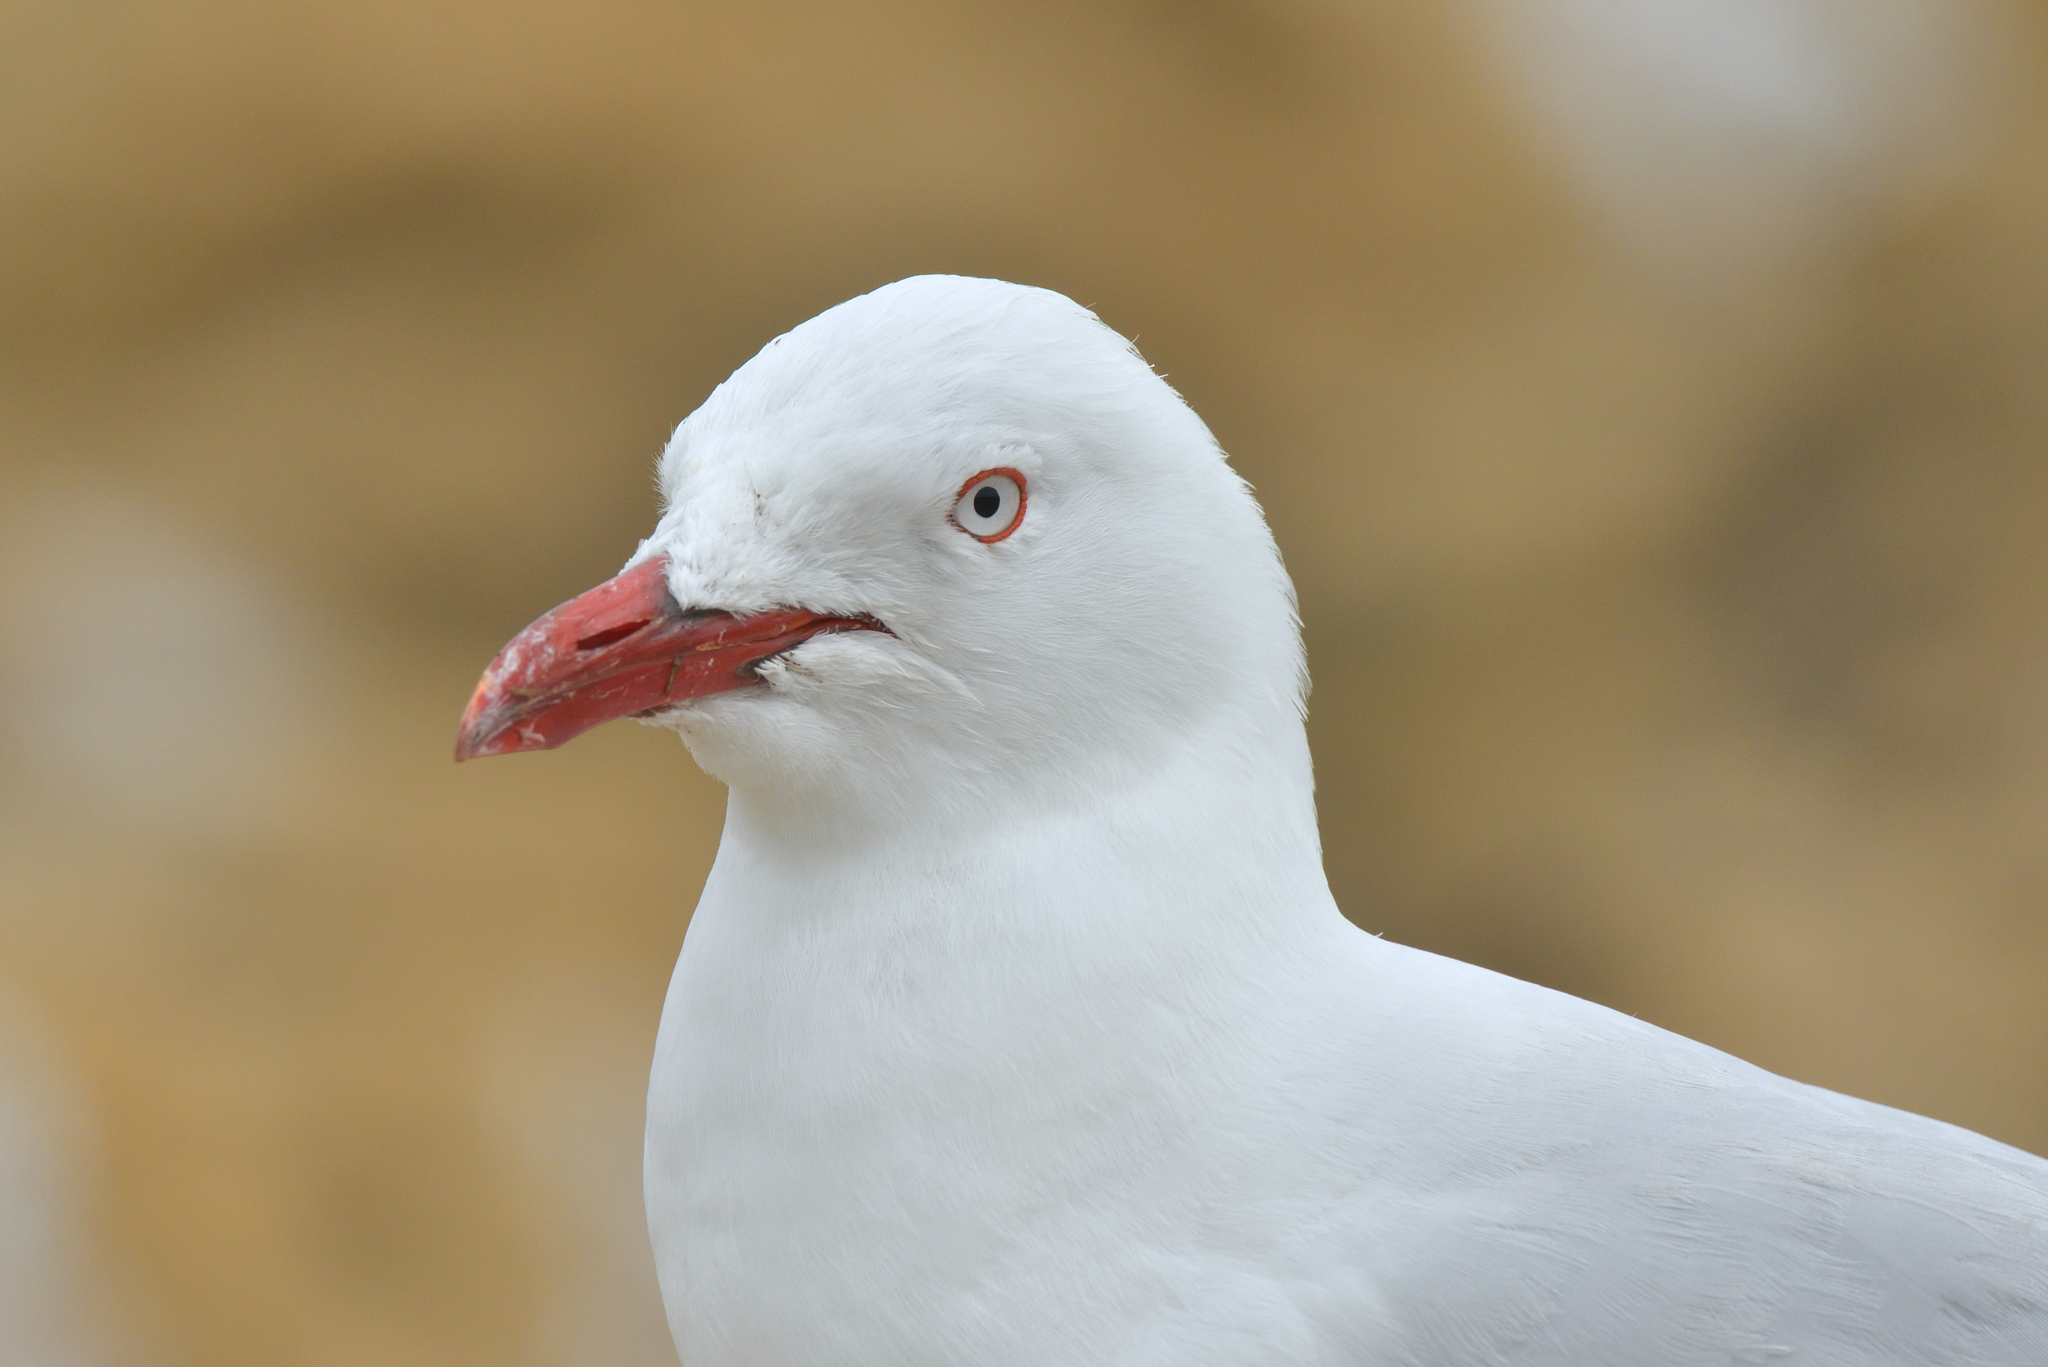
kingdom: Animalia
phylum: Chordata
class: Aves
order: Charadriiformes
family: Laridae
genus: Chroicocephalus
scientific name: Chroicocephalus novaehollandiae
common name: Silver gull
